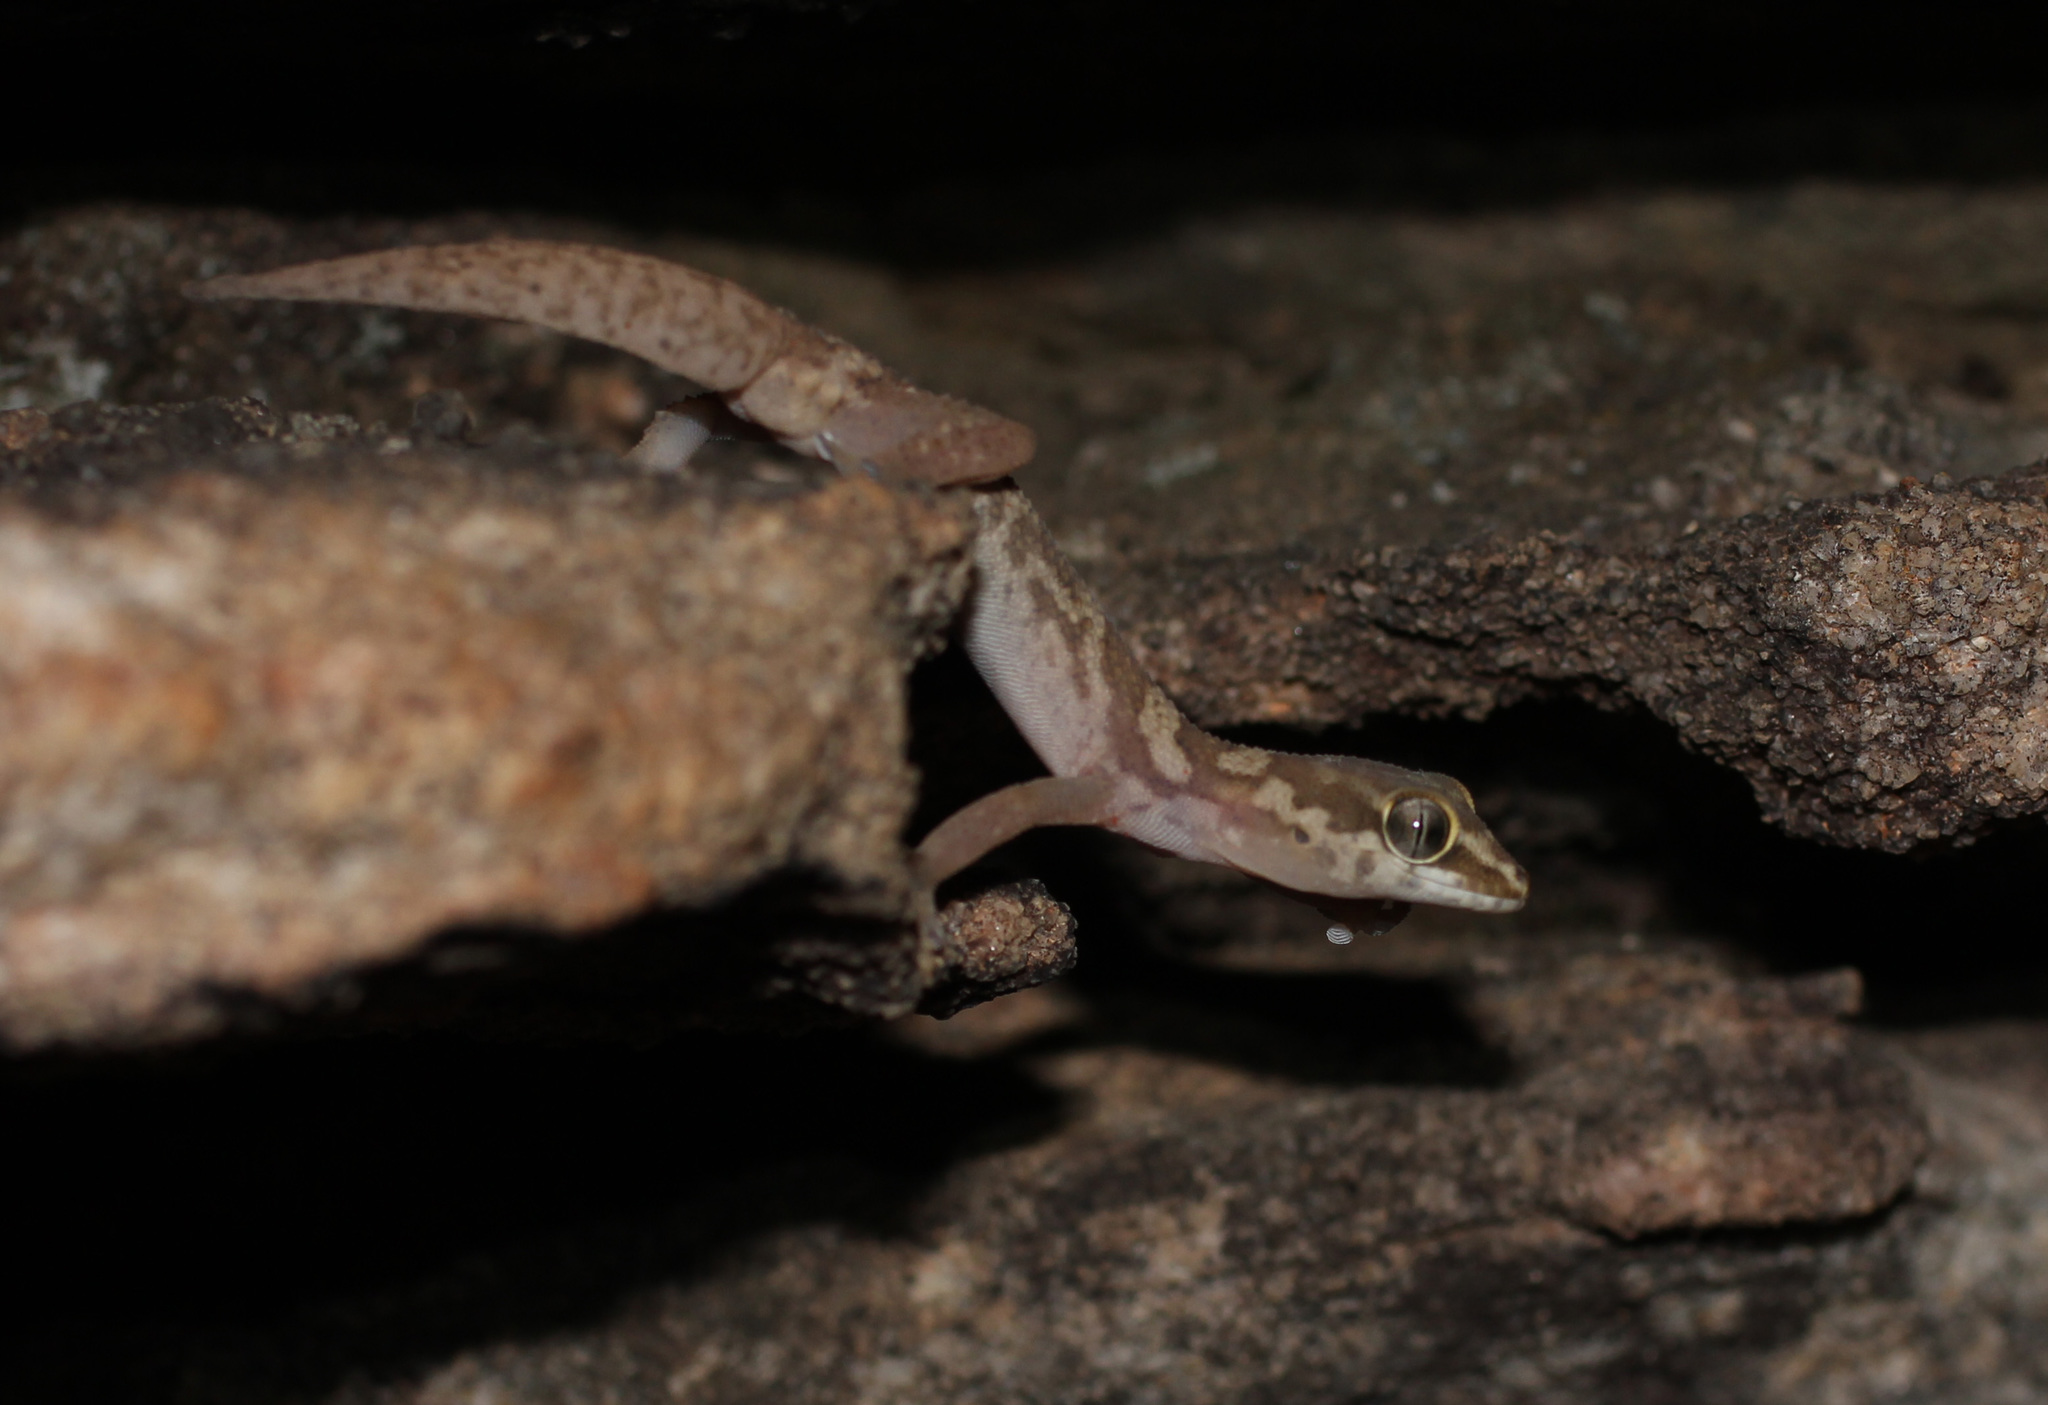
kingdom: Animalia
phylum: Chordata
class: Squamata
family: Gekkonidae
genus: Pachydactylus
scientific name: Pachydactylus formosus
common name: Southern rough gecko
